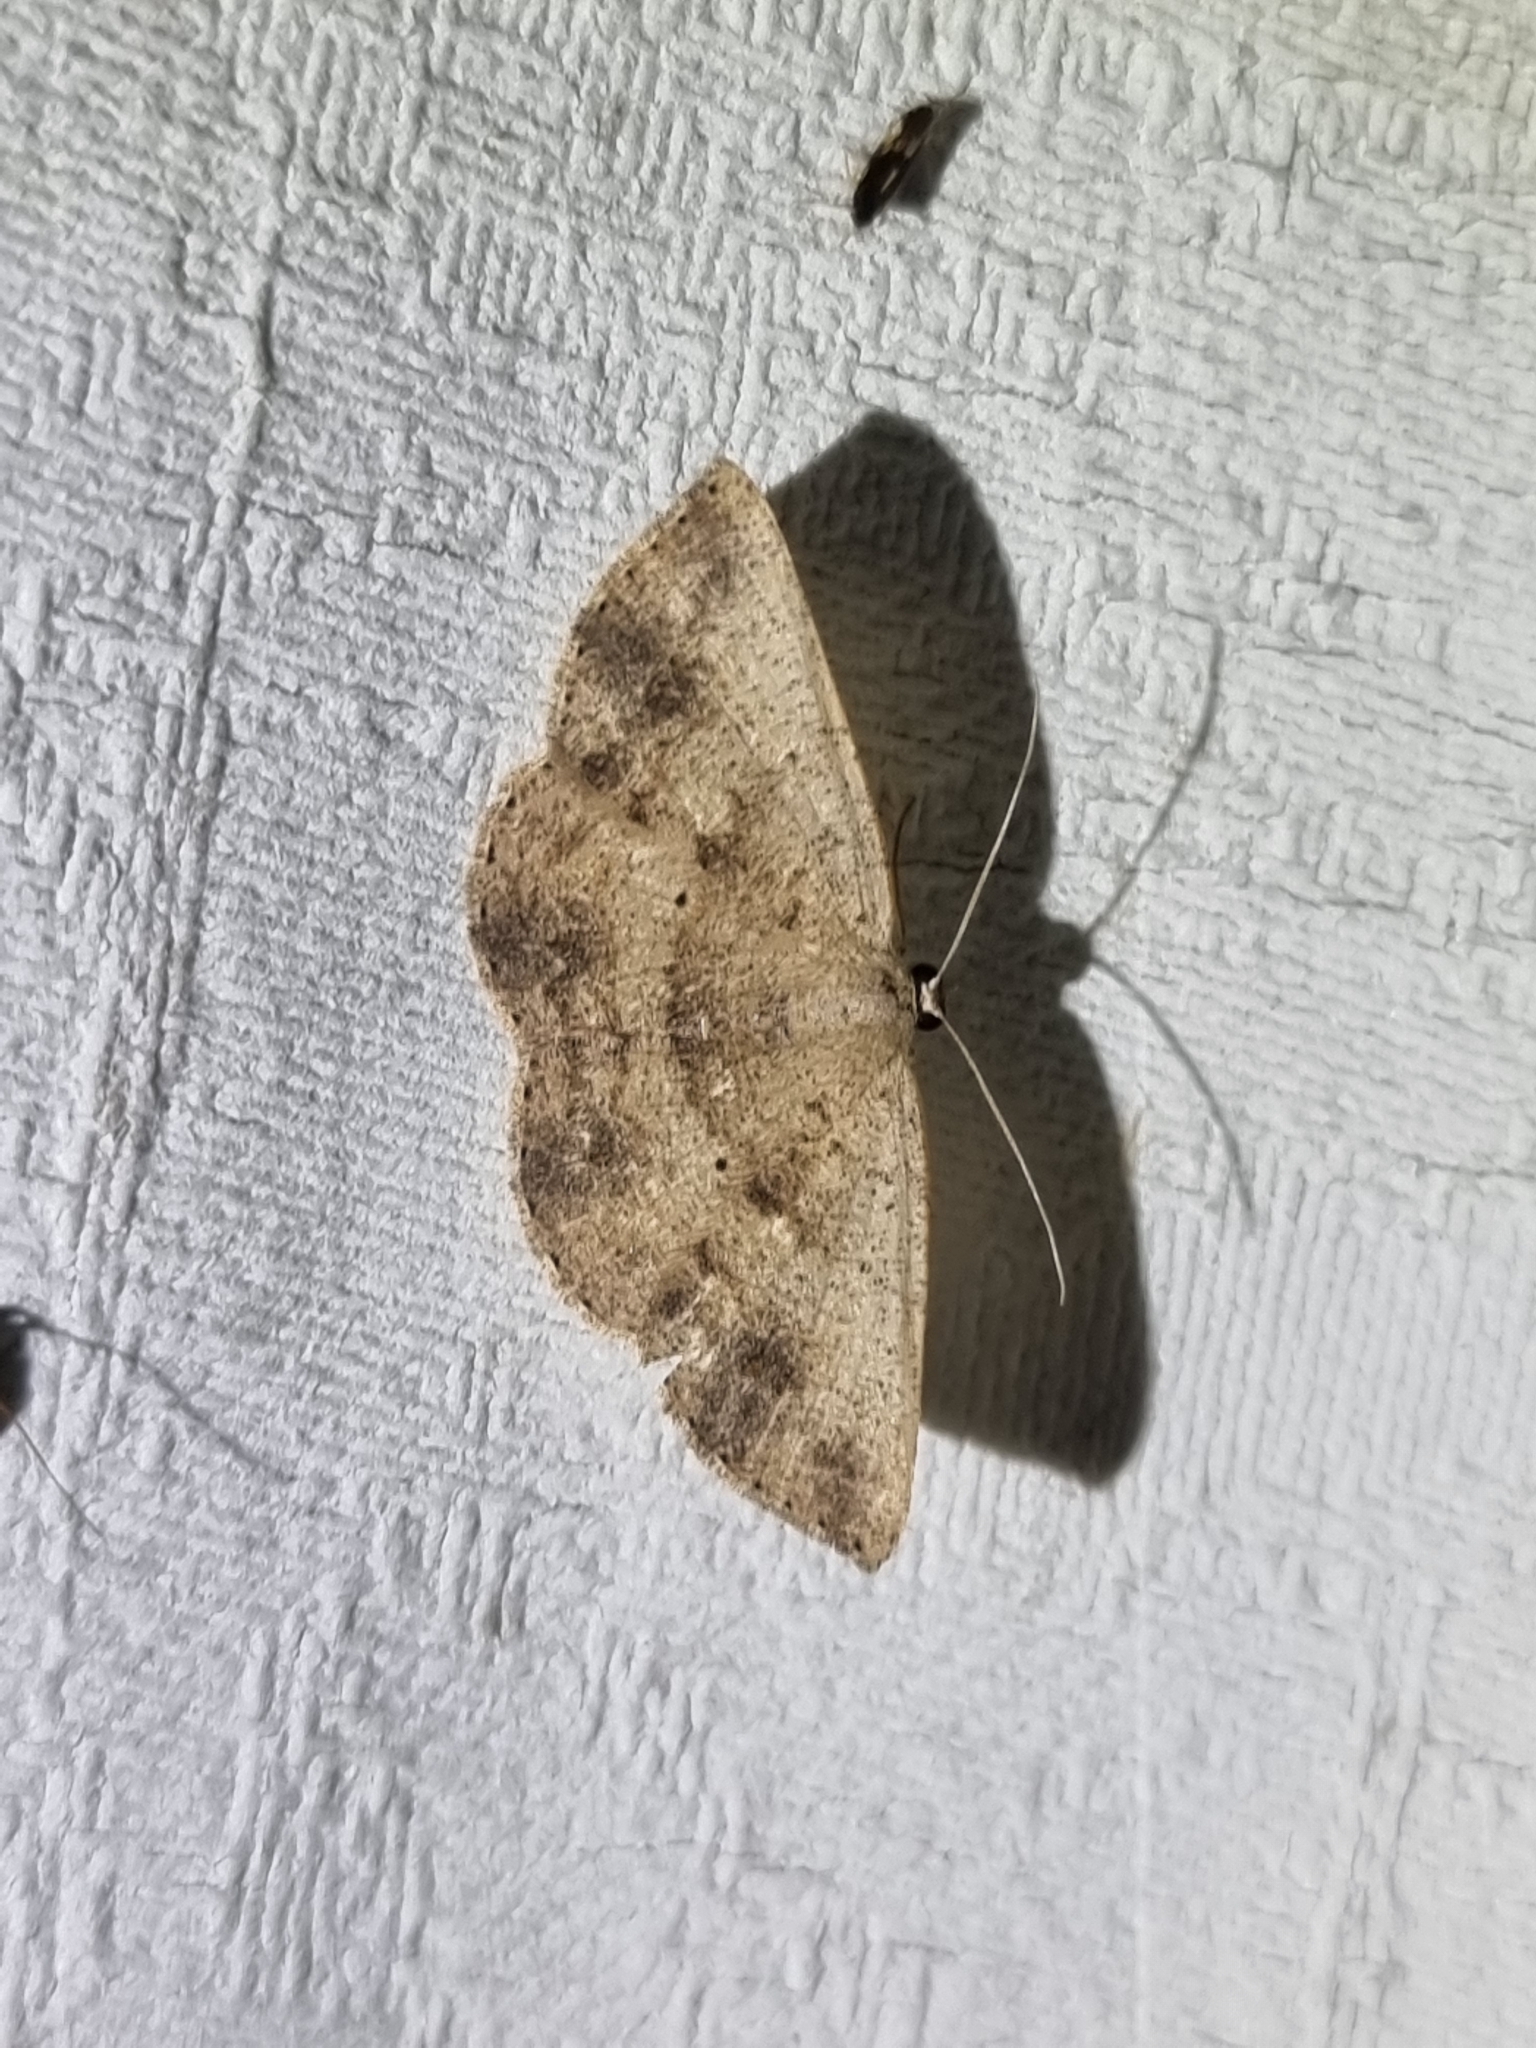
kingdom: Animalia
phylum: Arthropoda
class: Insecta
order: Lepidoptera
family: Geometridae
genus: Casbia
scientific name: Casbia rectaria
